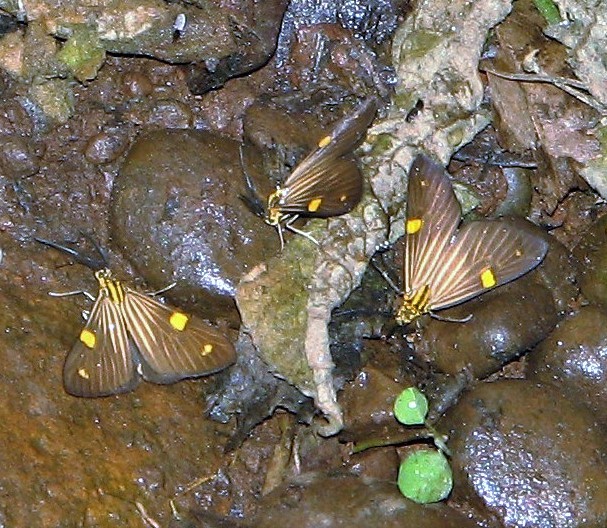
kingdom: Animalia
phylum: Arthropoda
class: Insecta
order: Lepidoptera
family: Notodontidae
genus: Phaeochlaena
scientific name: Phaeochlaena
